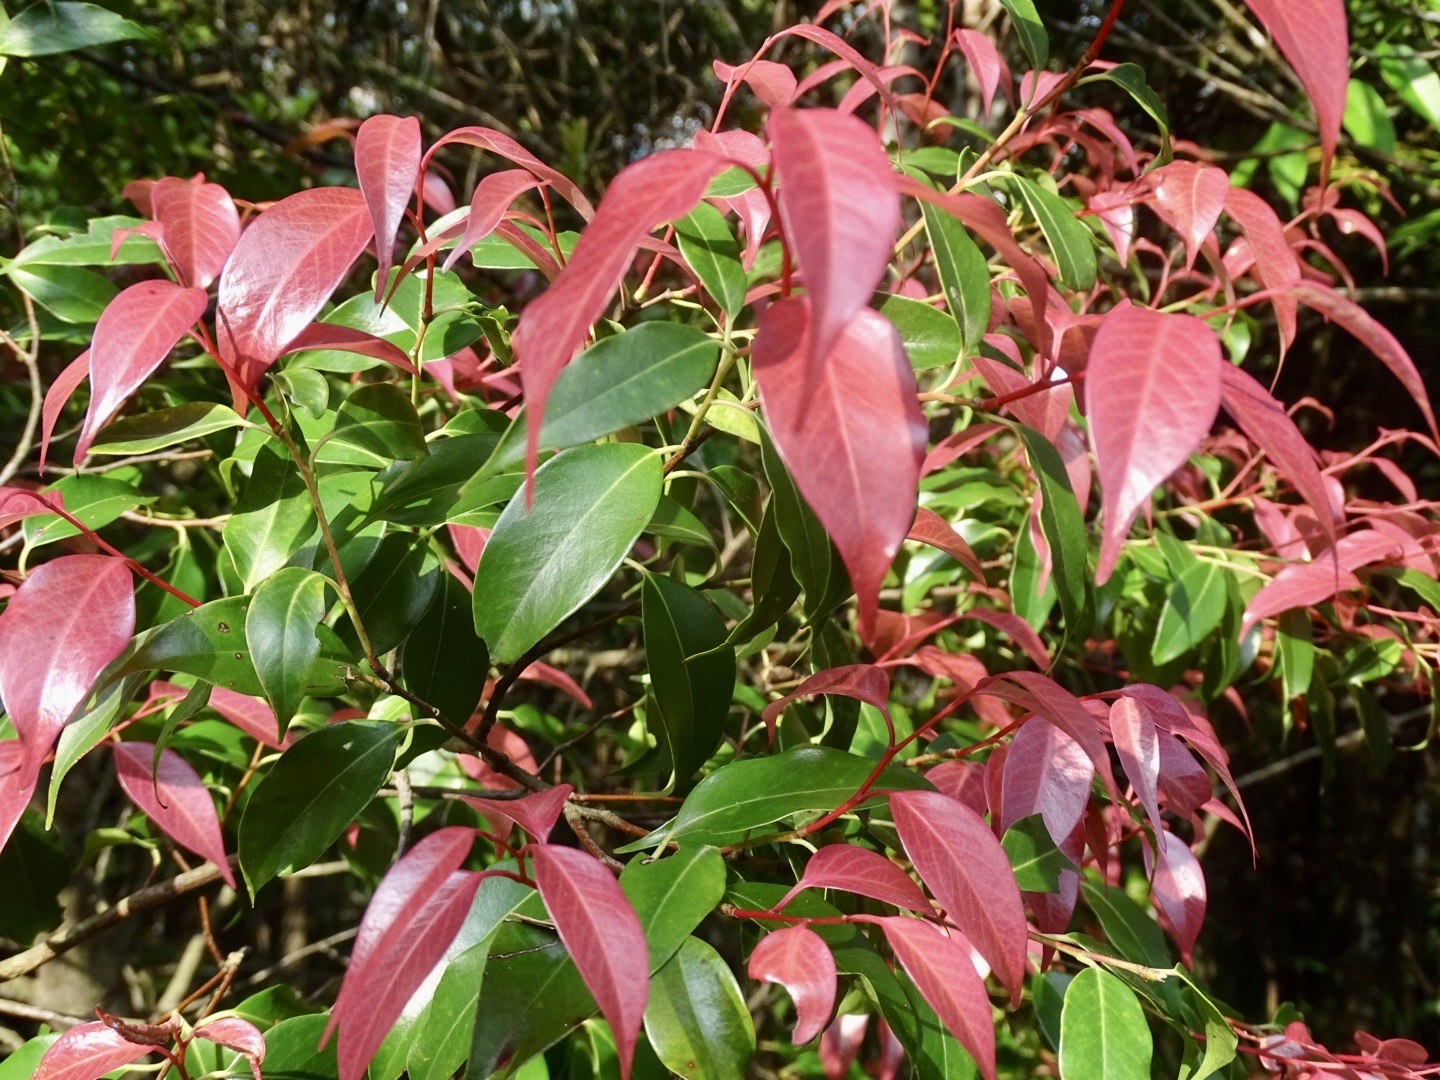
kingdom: Plantae
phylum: Tracheophyta
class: Magnoliopsida
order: Ericales
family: Pentaphylacaceae
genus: Pentaphylax
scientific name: Pentaphylax euryoides
